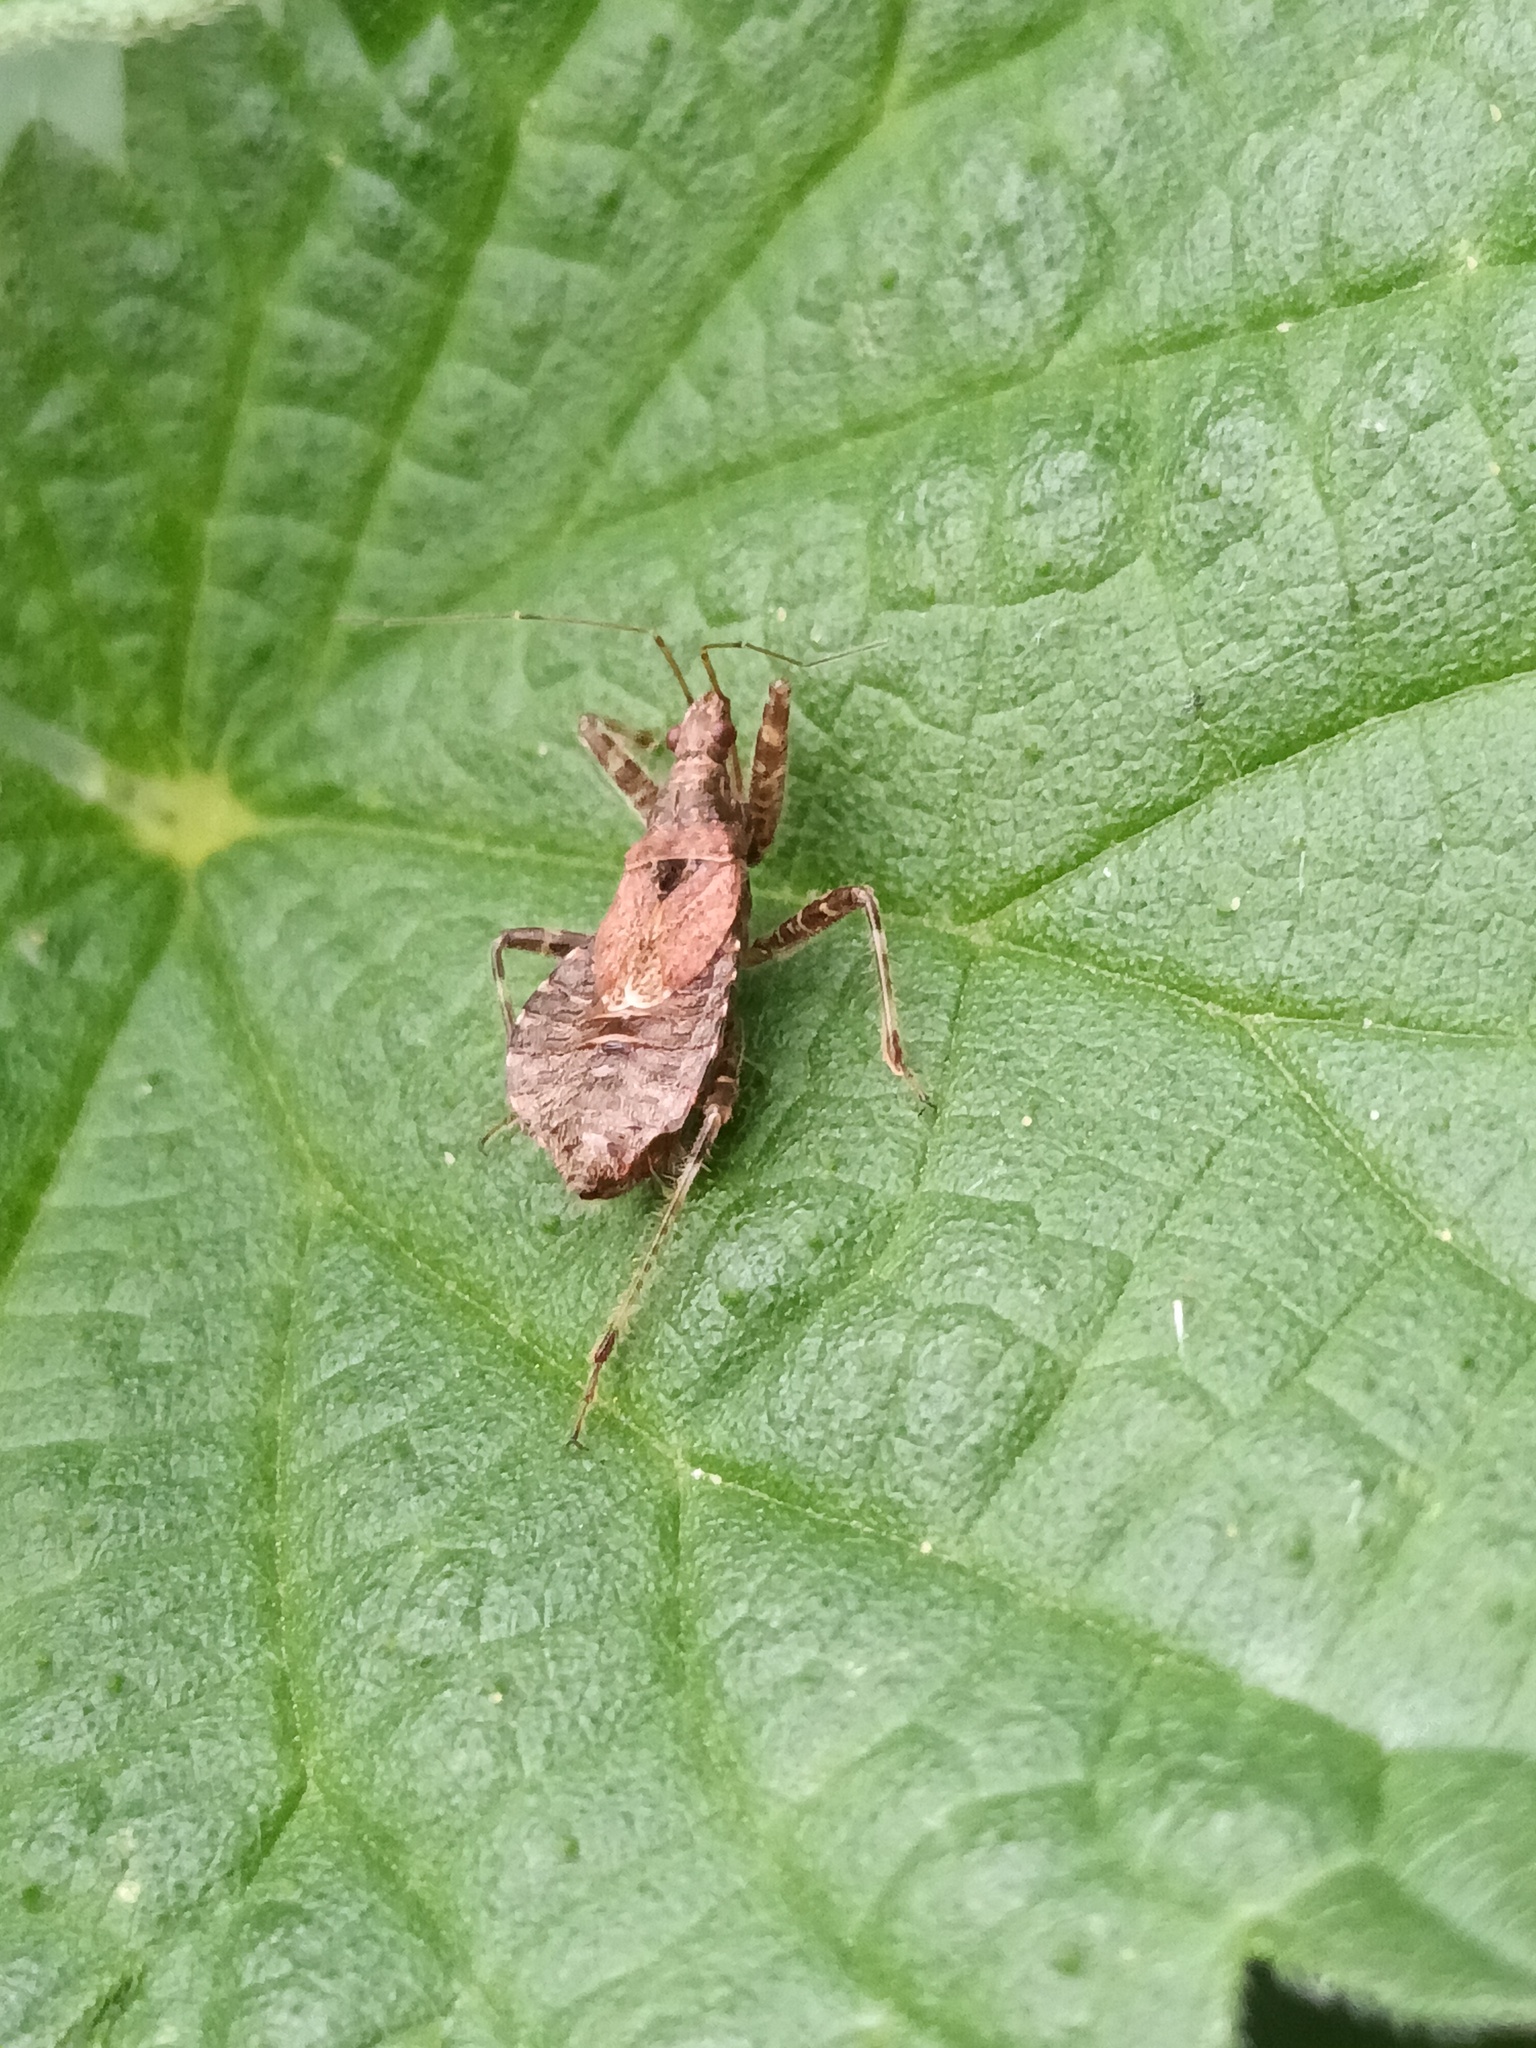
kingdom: Animalia
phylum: Arthropoda
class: Insecta
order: Hemiptera
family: Nabidae
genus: Himacerus
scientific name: Himacerus apterus
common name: Tree damsel bug
